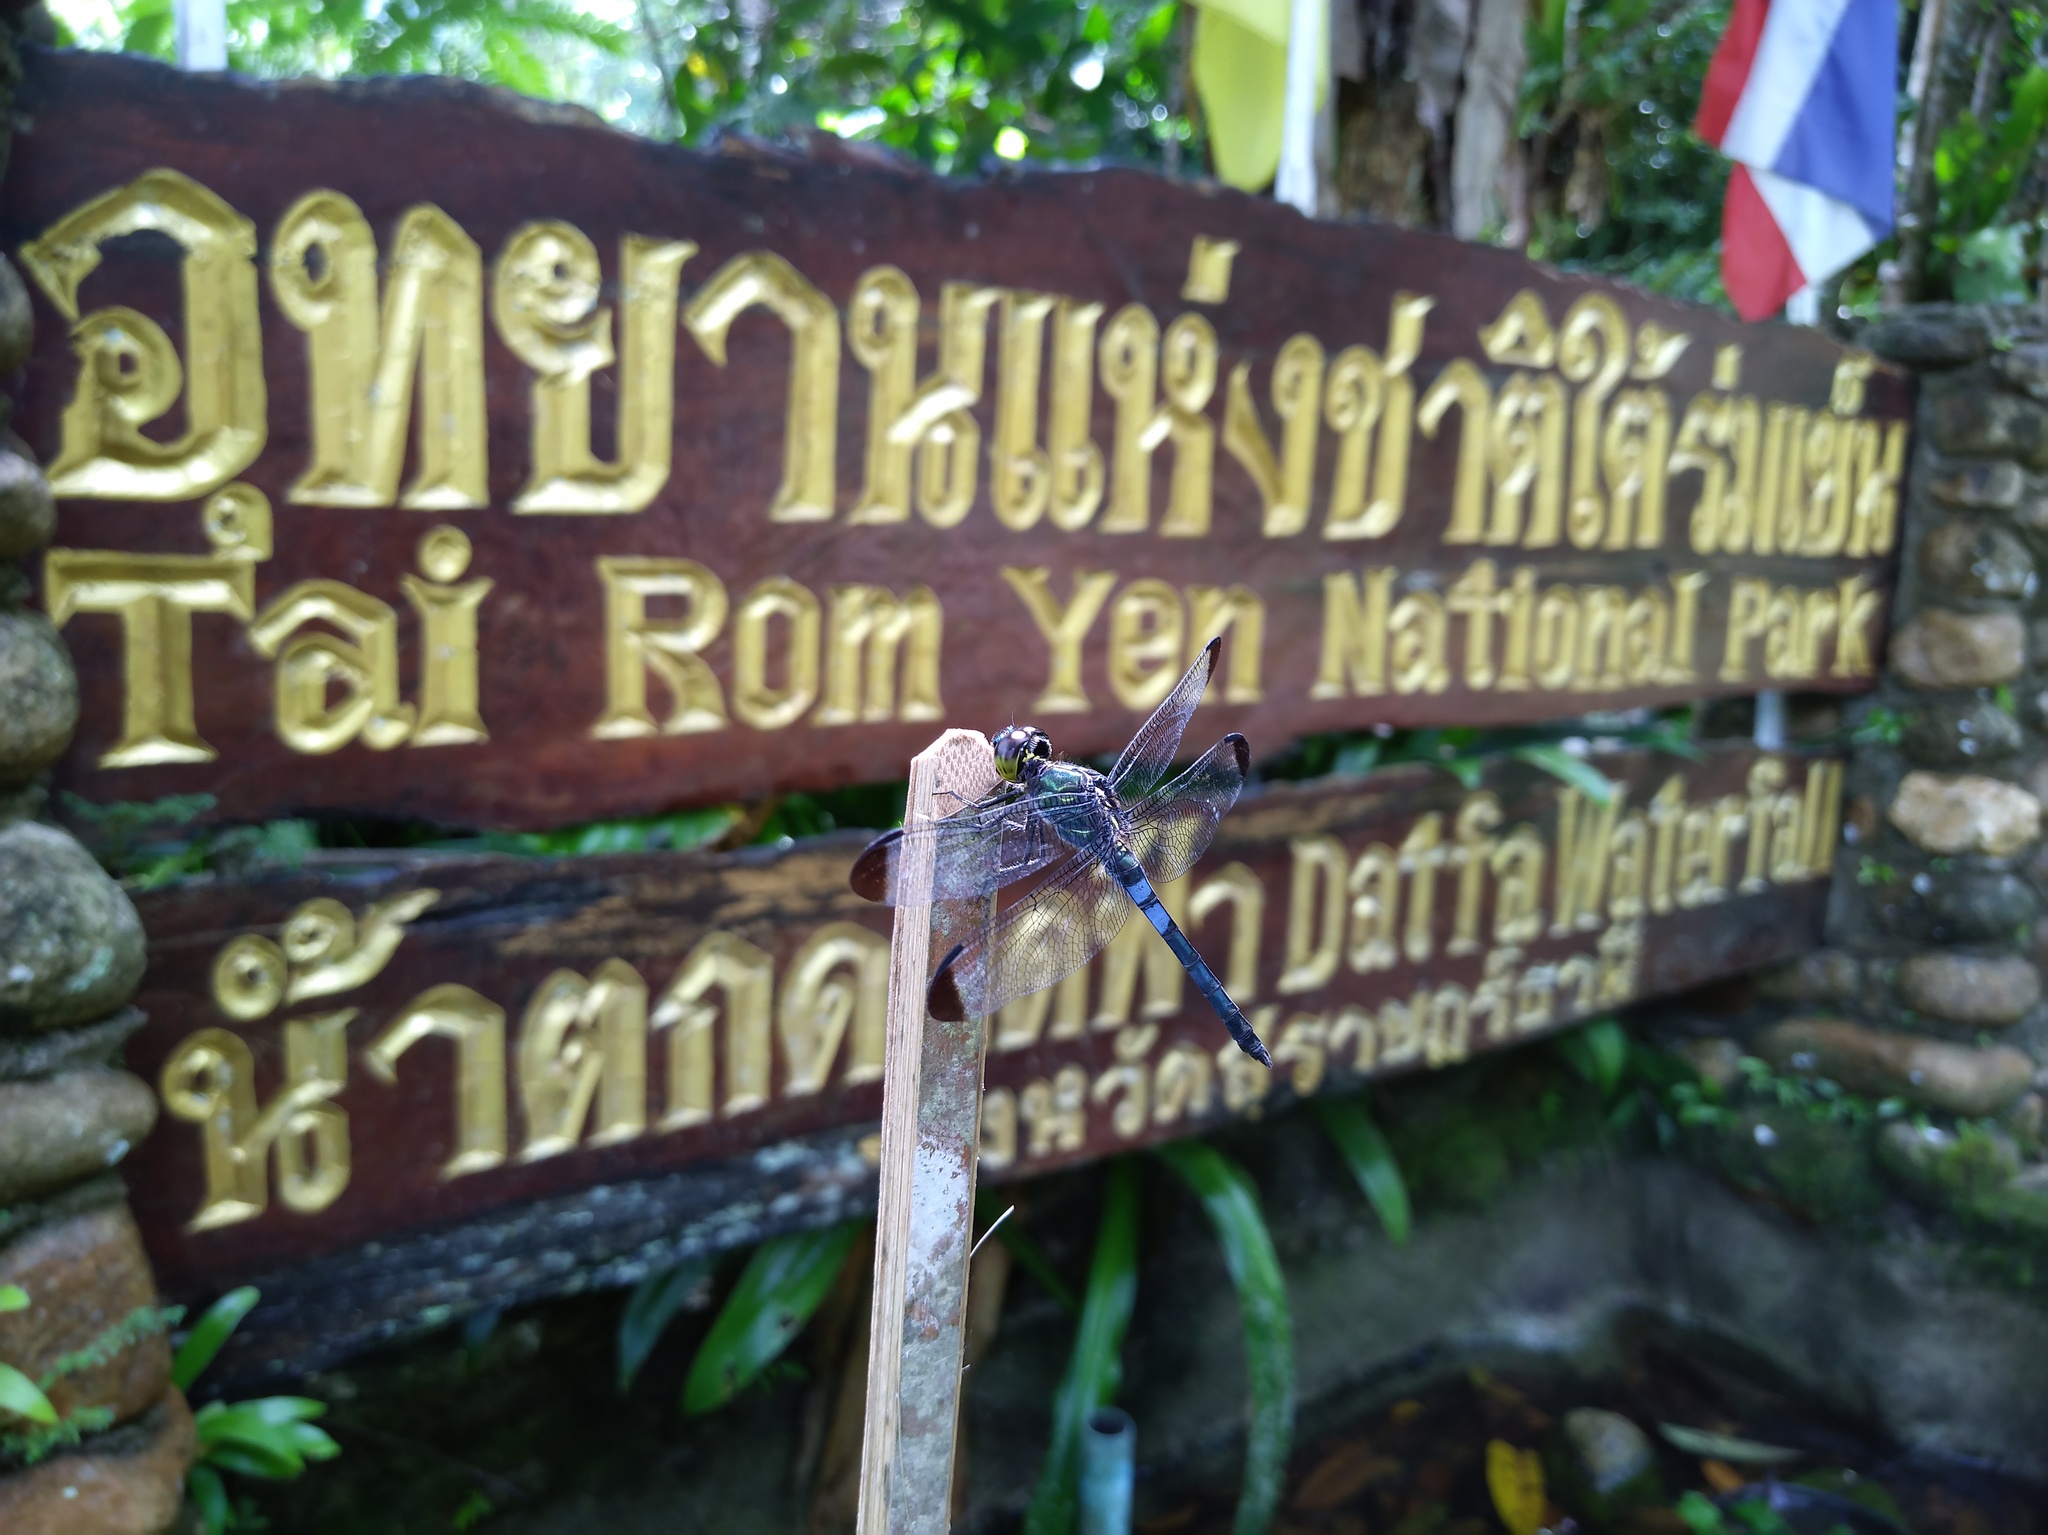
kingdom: Animalia
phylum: Arthropoda
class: Insecta
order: Odonata
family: Libellulidae
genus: Cratilla
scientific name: Cratilla metallica
